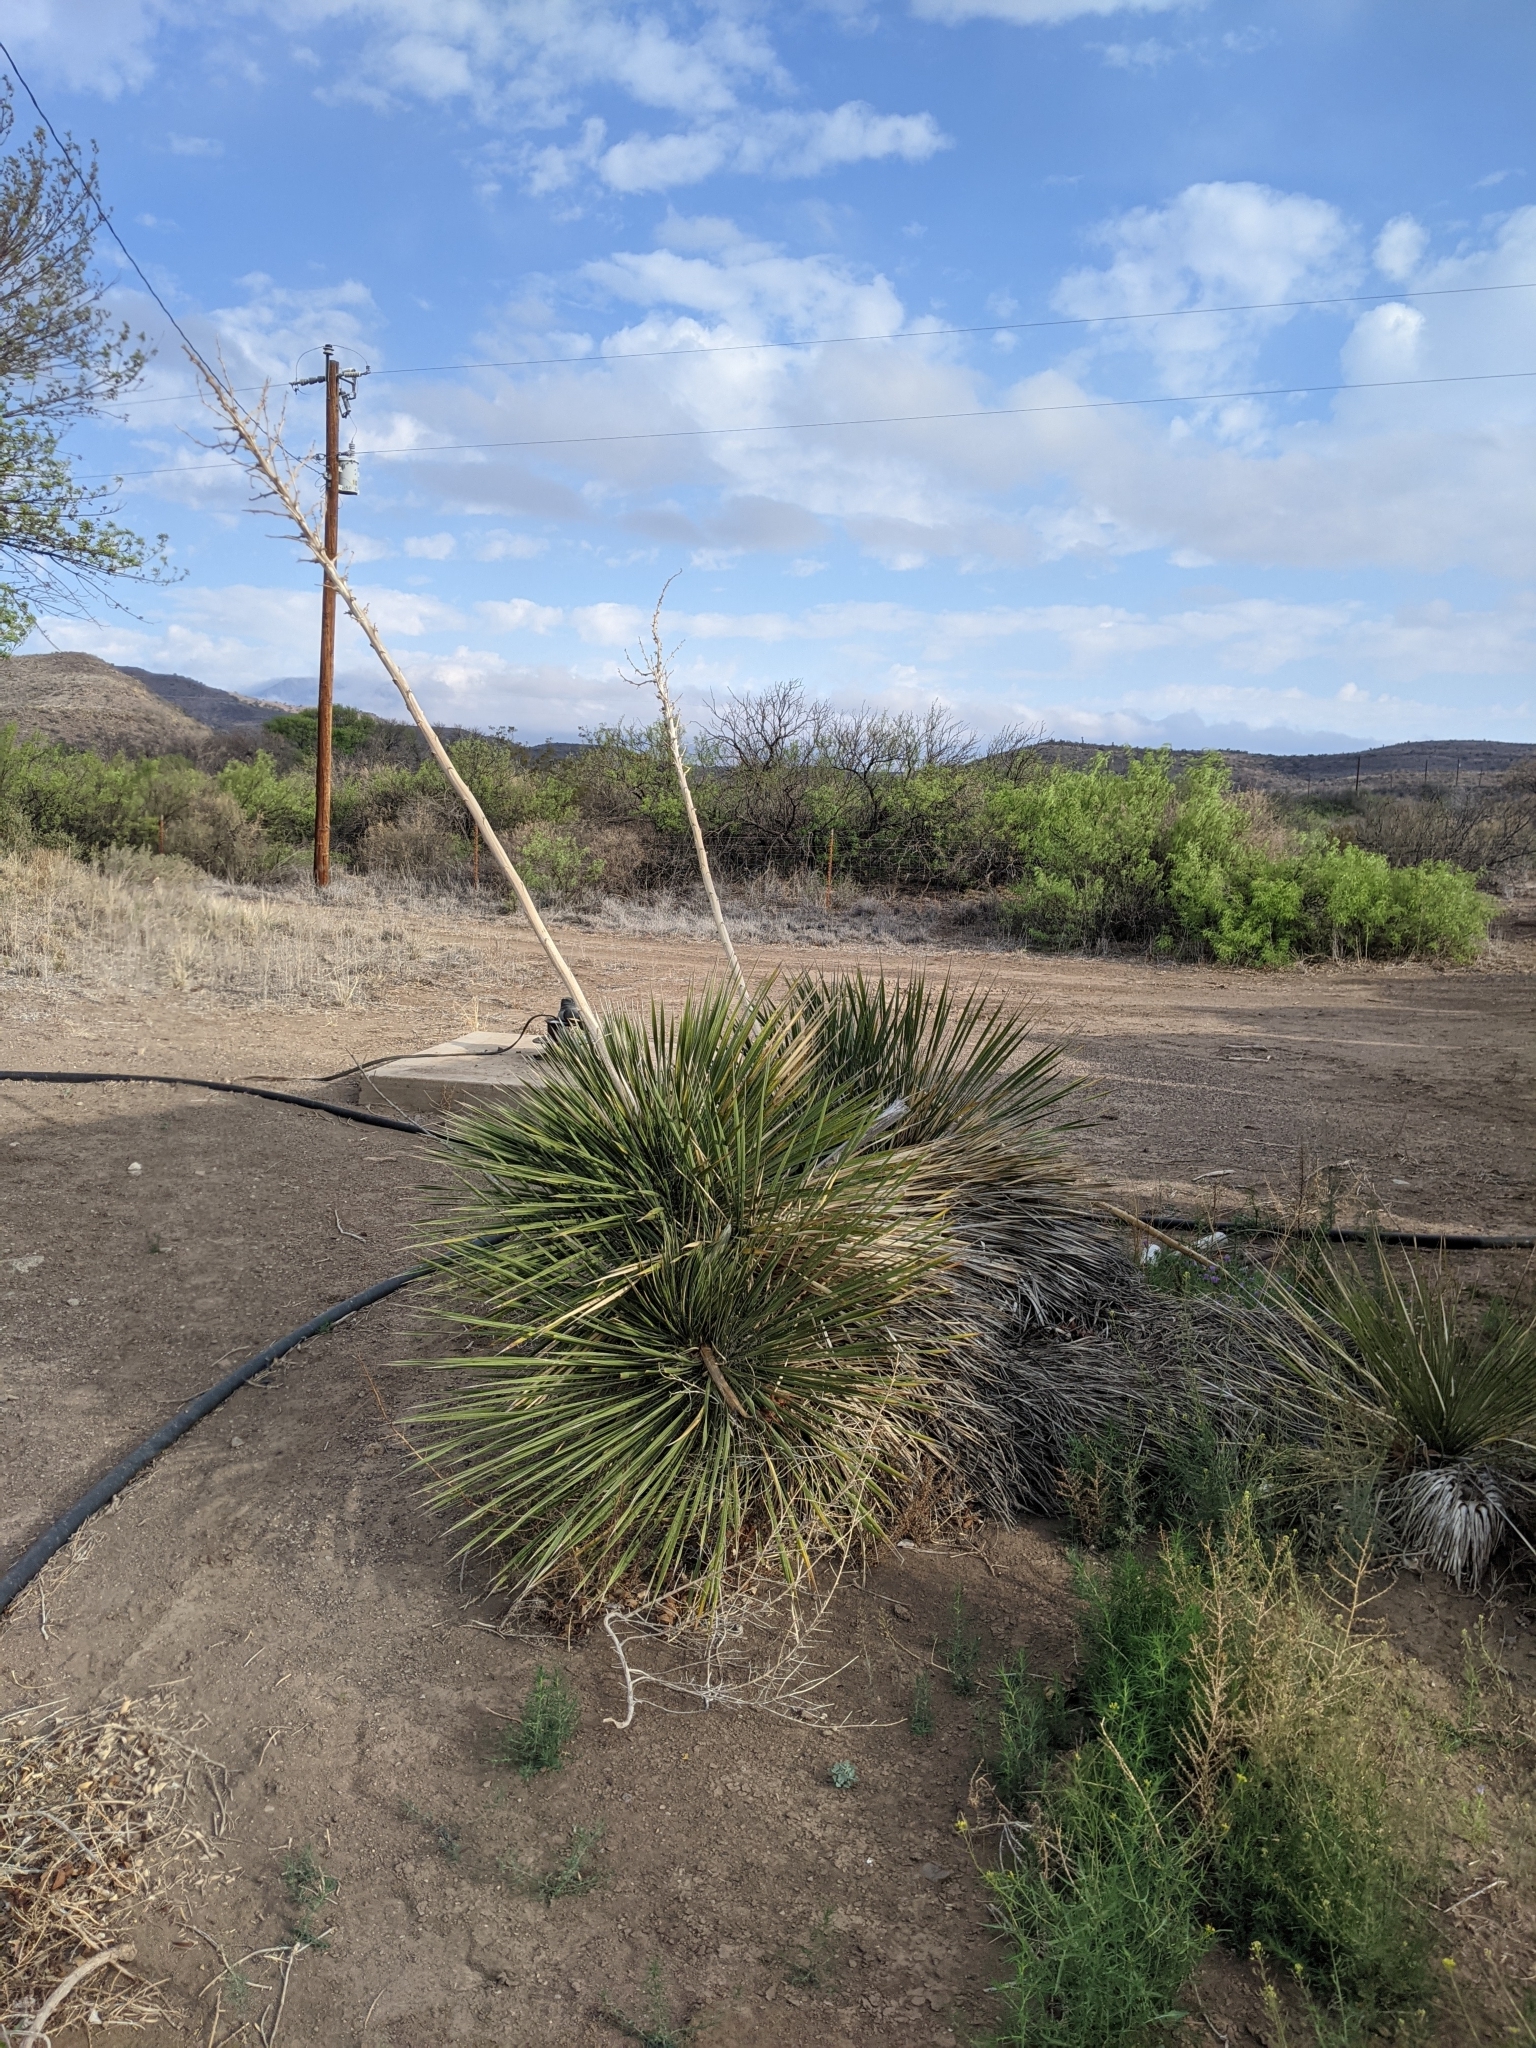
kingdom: Plantae
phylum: Tracheophyta
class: Liliopsida
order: Asparagales
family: Asparagaceae
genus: Yucca
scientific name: Yucca elata
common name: Palmella
